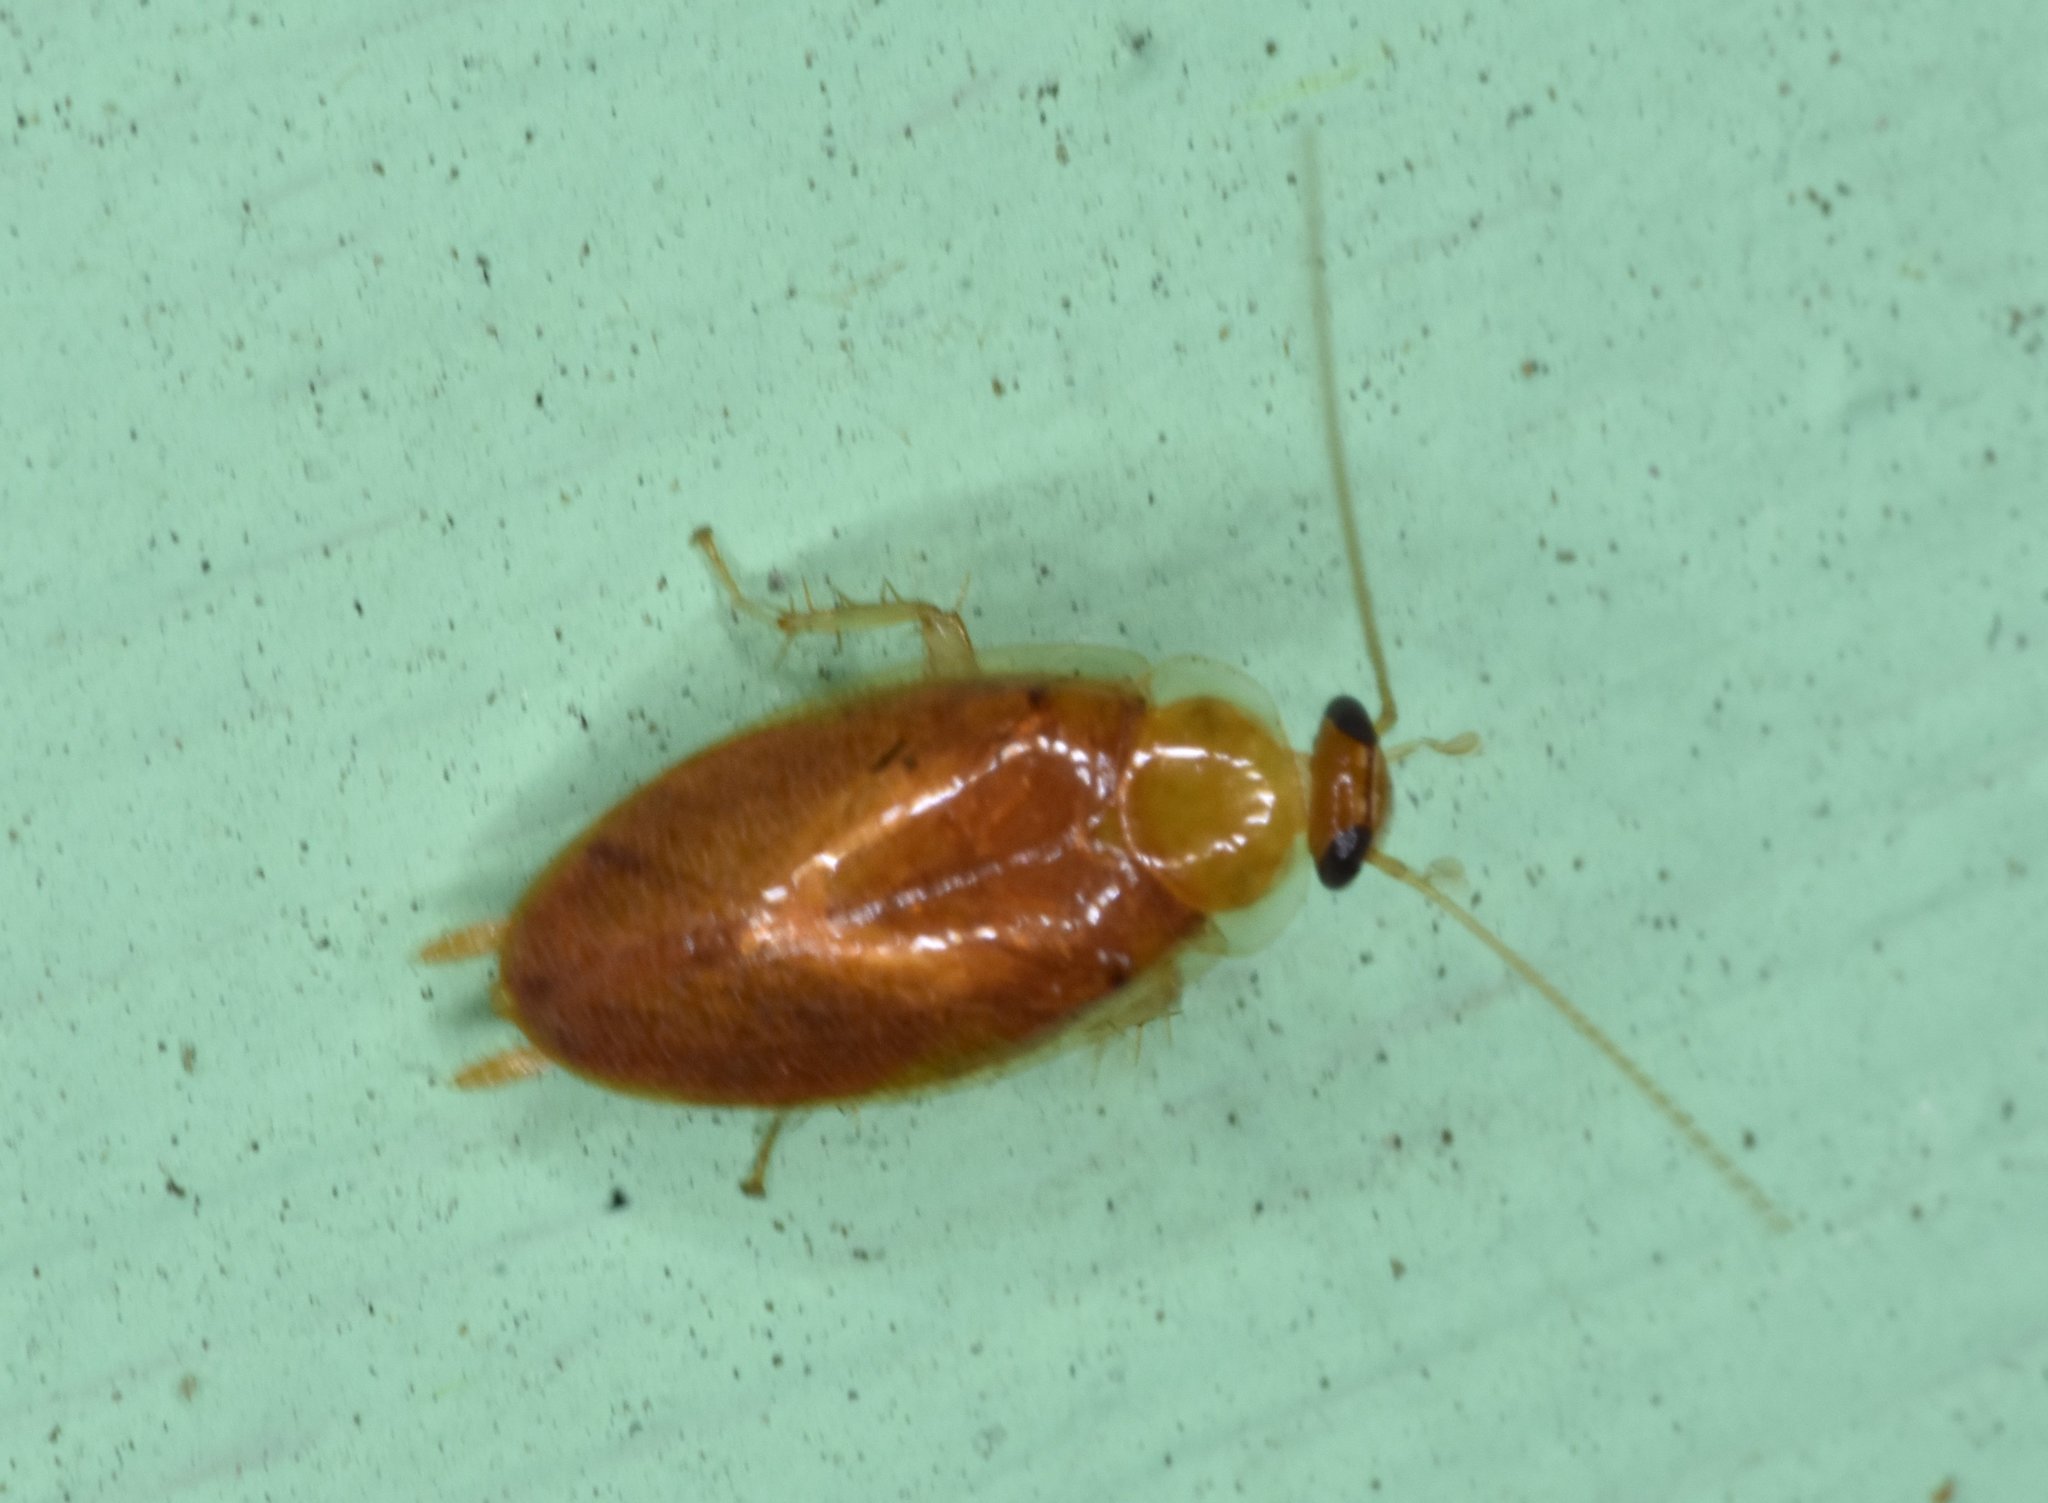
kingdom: Animalia
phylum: Arthropoda
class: Insecta
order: Blattodea
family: Ectobiidae
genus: Plectoptera
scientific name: Plectoptera poeyi
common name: Florida beetle cockroach
